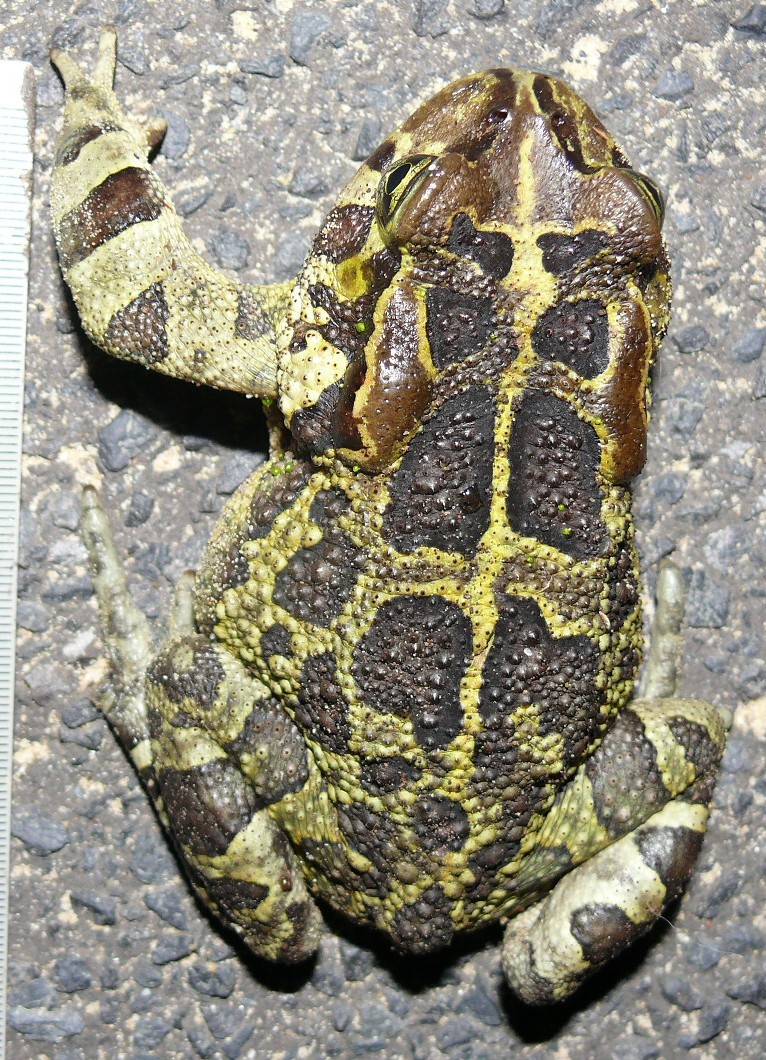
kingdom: Animalia
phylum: Chordata
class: Amphibia
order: Anura
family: Bufonidae
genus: Sclerophrys
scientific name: Sclerophrys pantherina
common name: Panther toad
